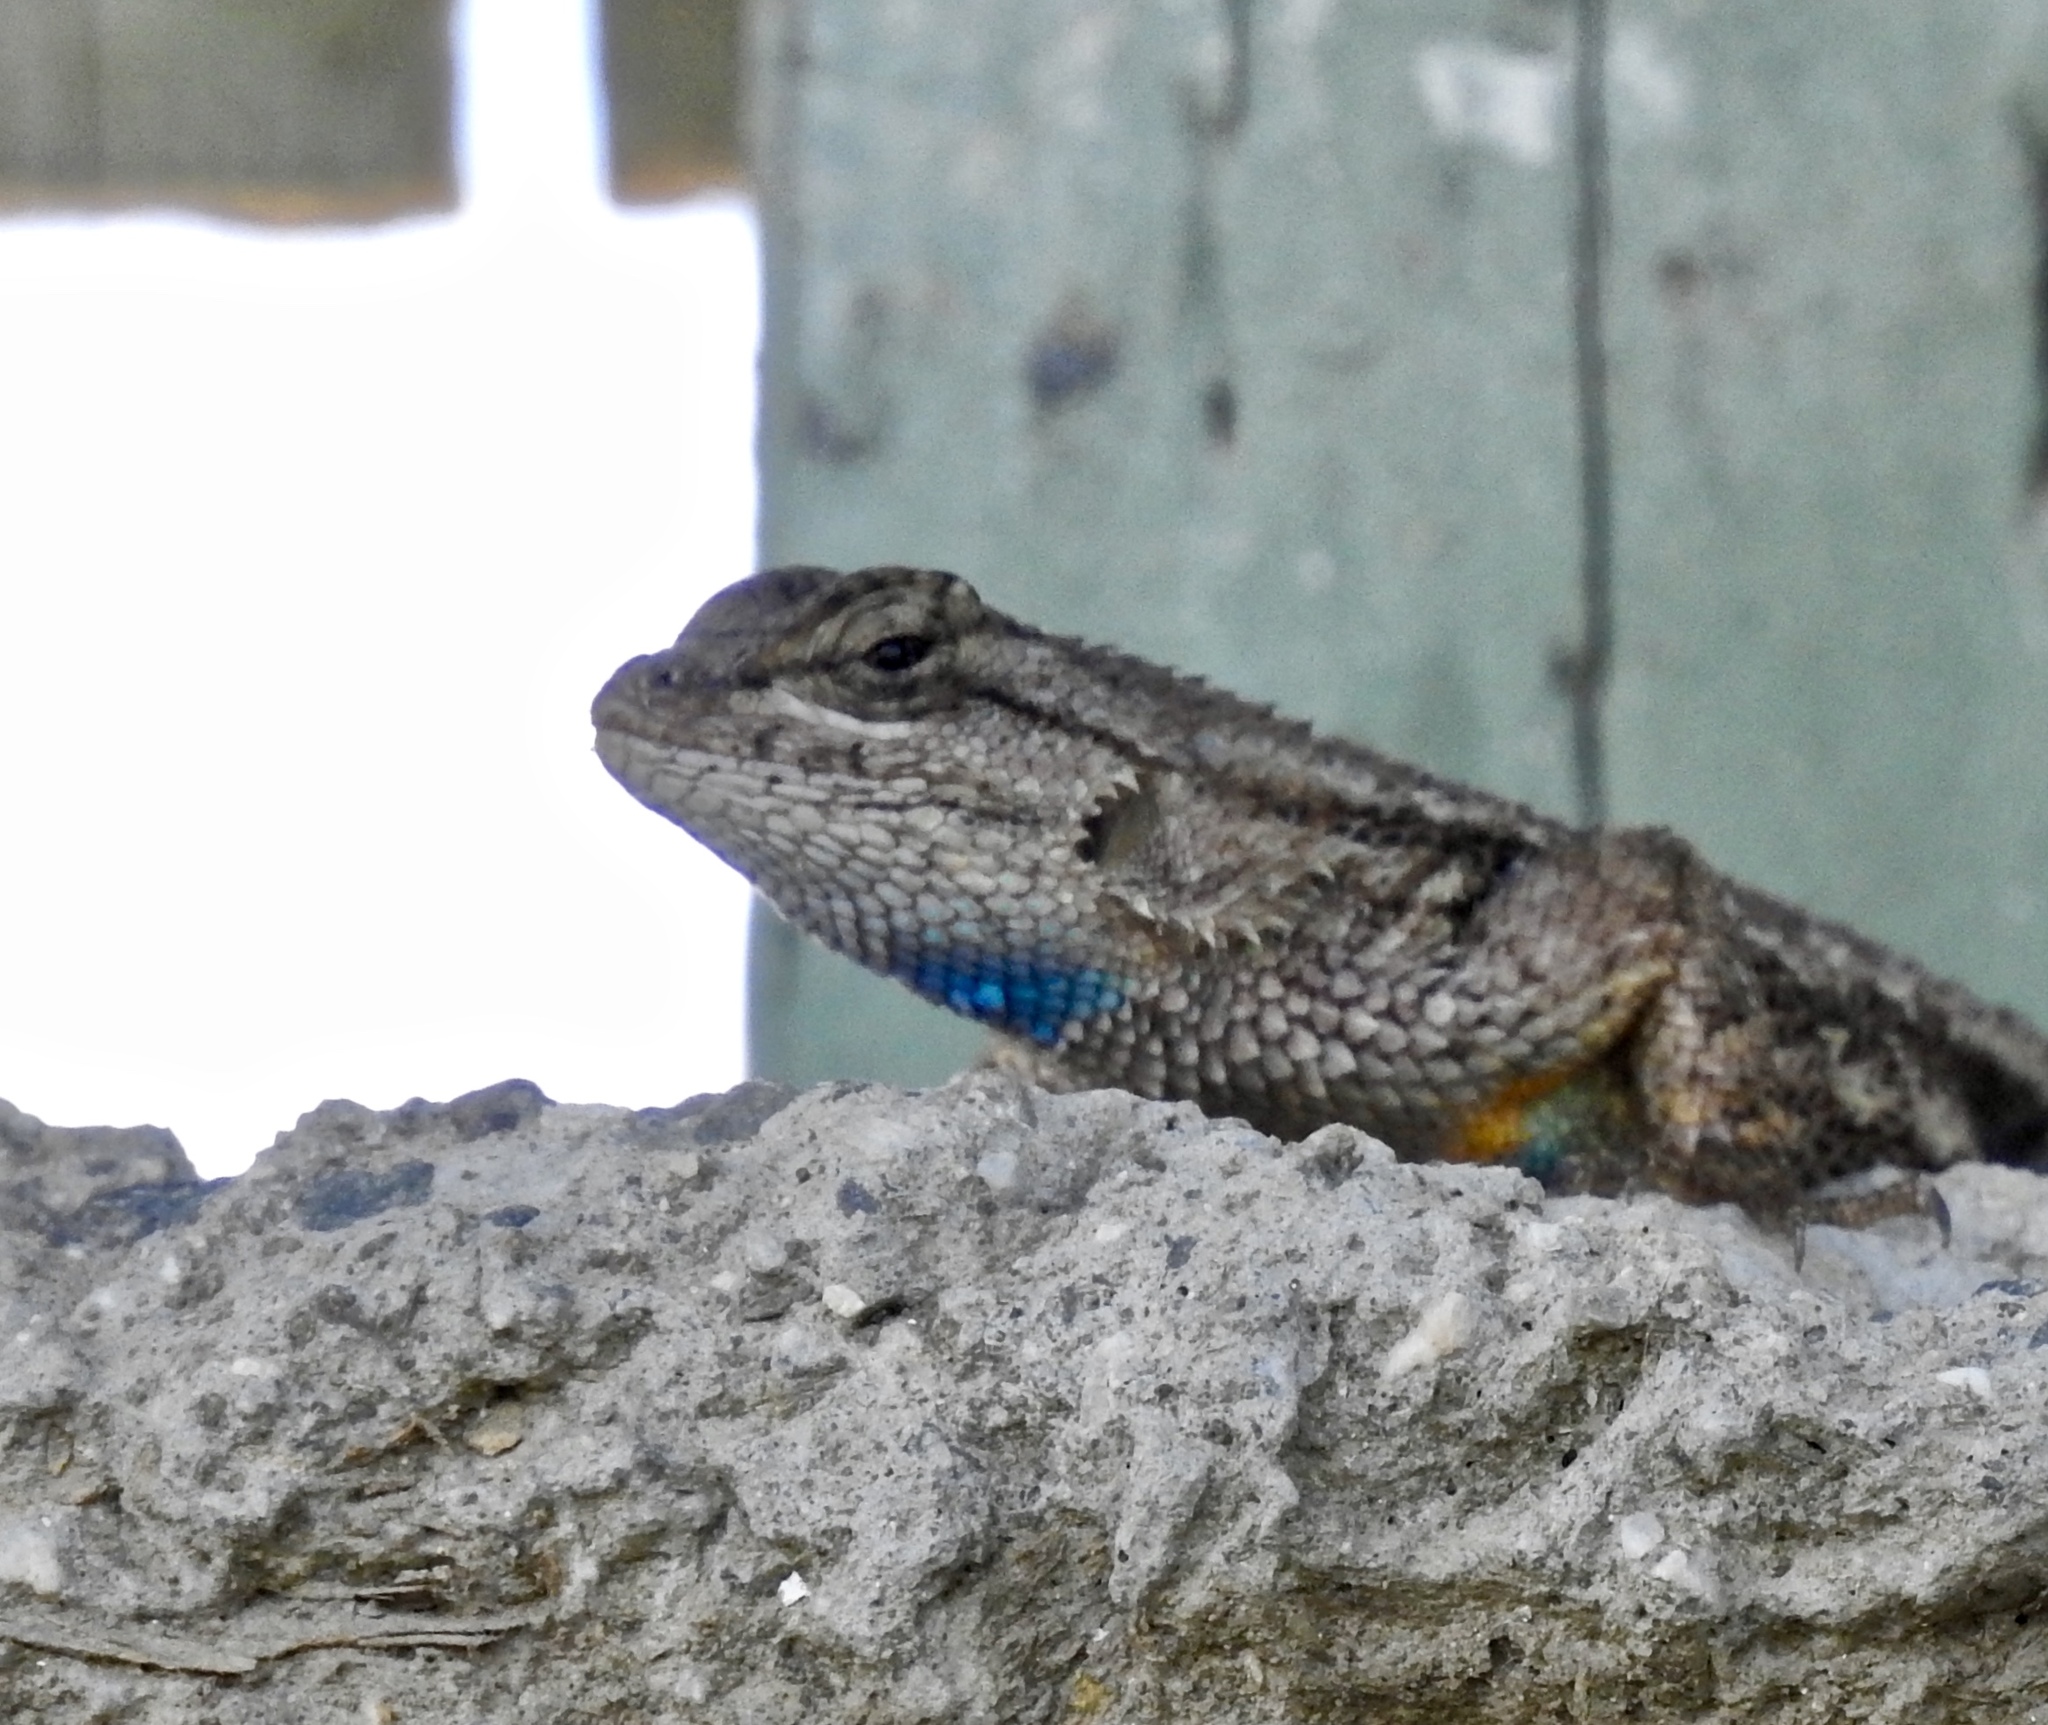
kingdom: Animalia
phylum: Chordata
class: Squamata
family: Phrynosomatidae
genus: Sceloporus
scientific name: Sceloporus occidentalis
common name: Western fence lizard
